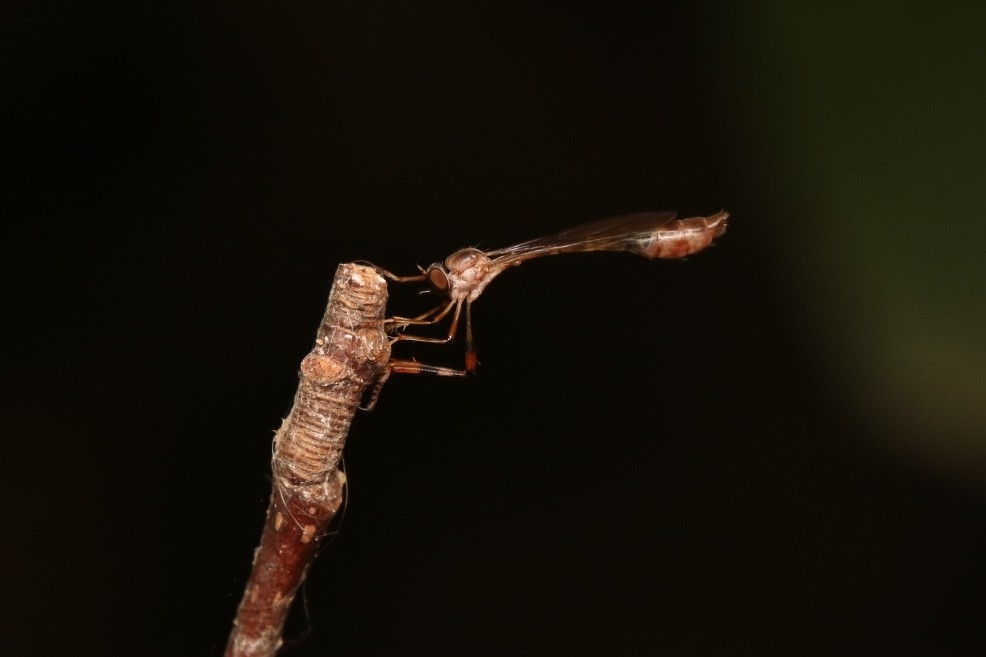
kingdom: Animalia
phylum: Arthropoda
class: Insecta
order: Diptera
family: Asilidae
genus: Psilonyx
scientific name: Psilonyx annulatus
